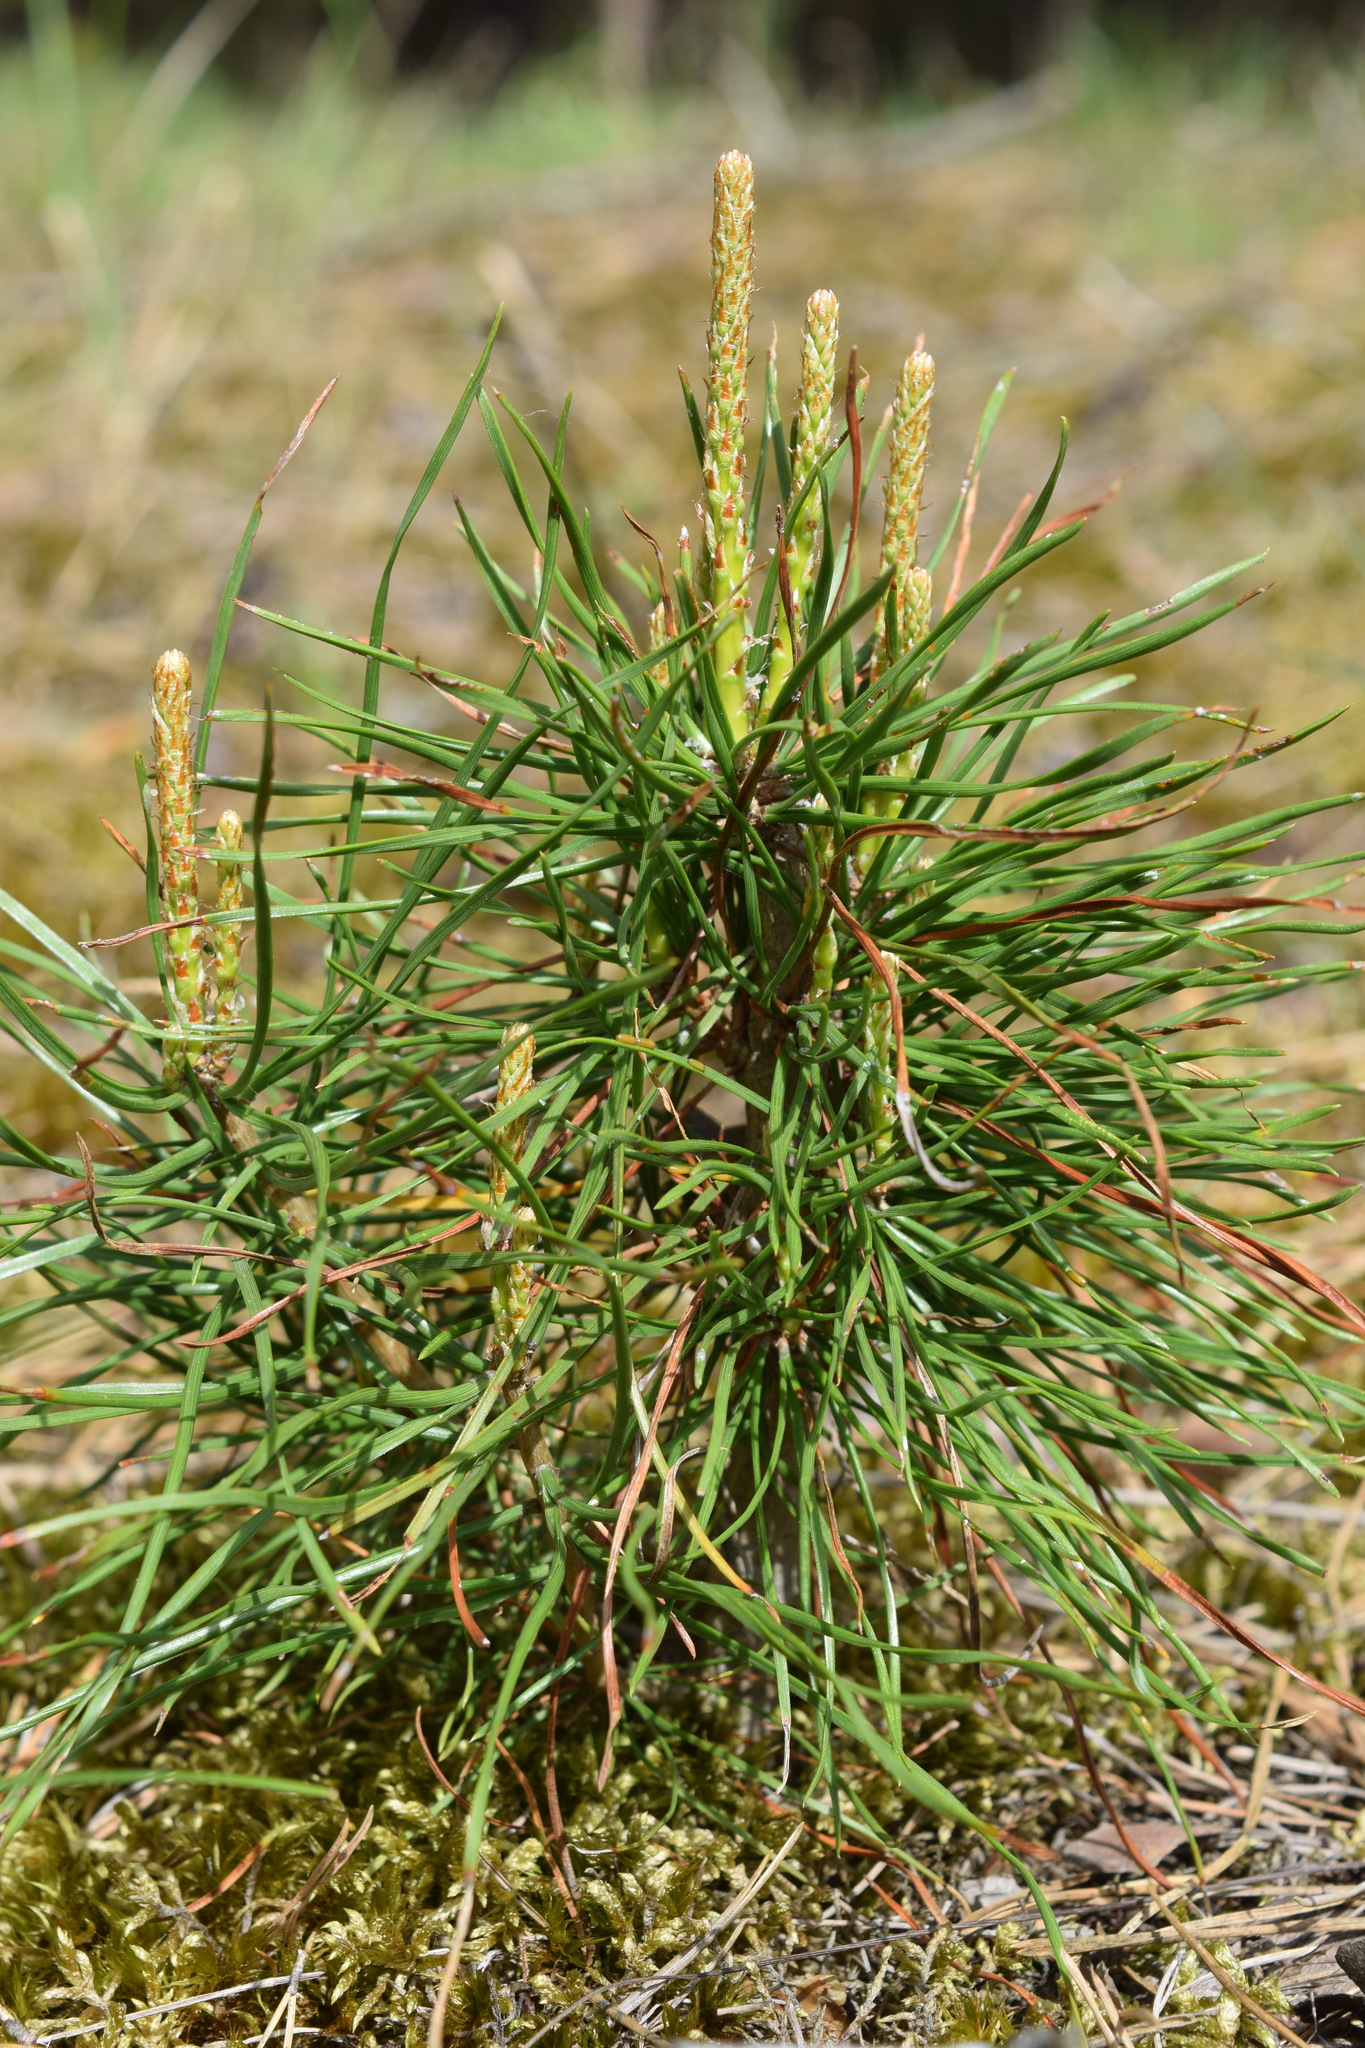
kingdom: Plantae
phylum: Tracheophyta
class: Pinopsida
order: Pinales
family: Pinaceae
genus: Pinus
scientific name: Pinus sylvestris
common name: Scots pine
